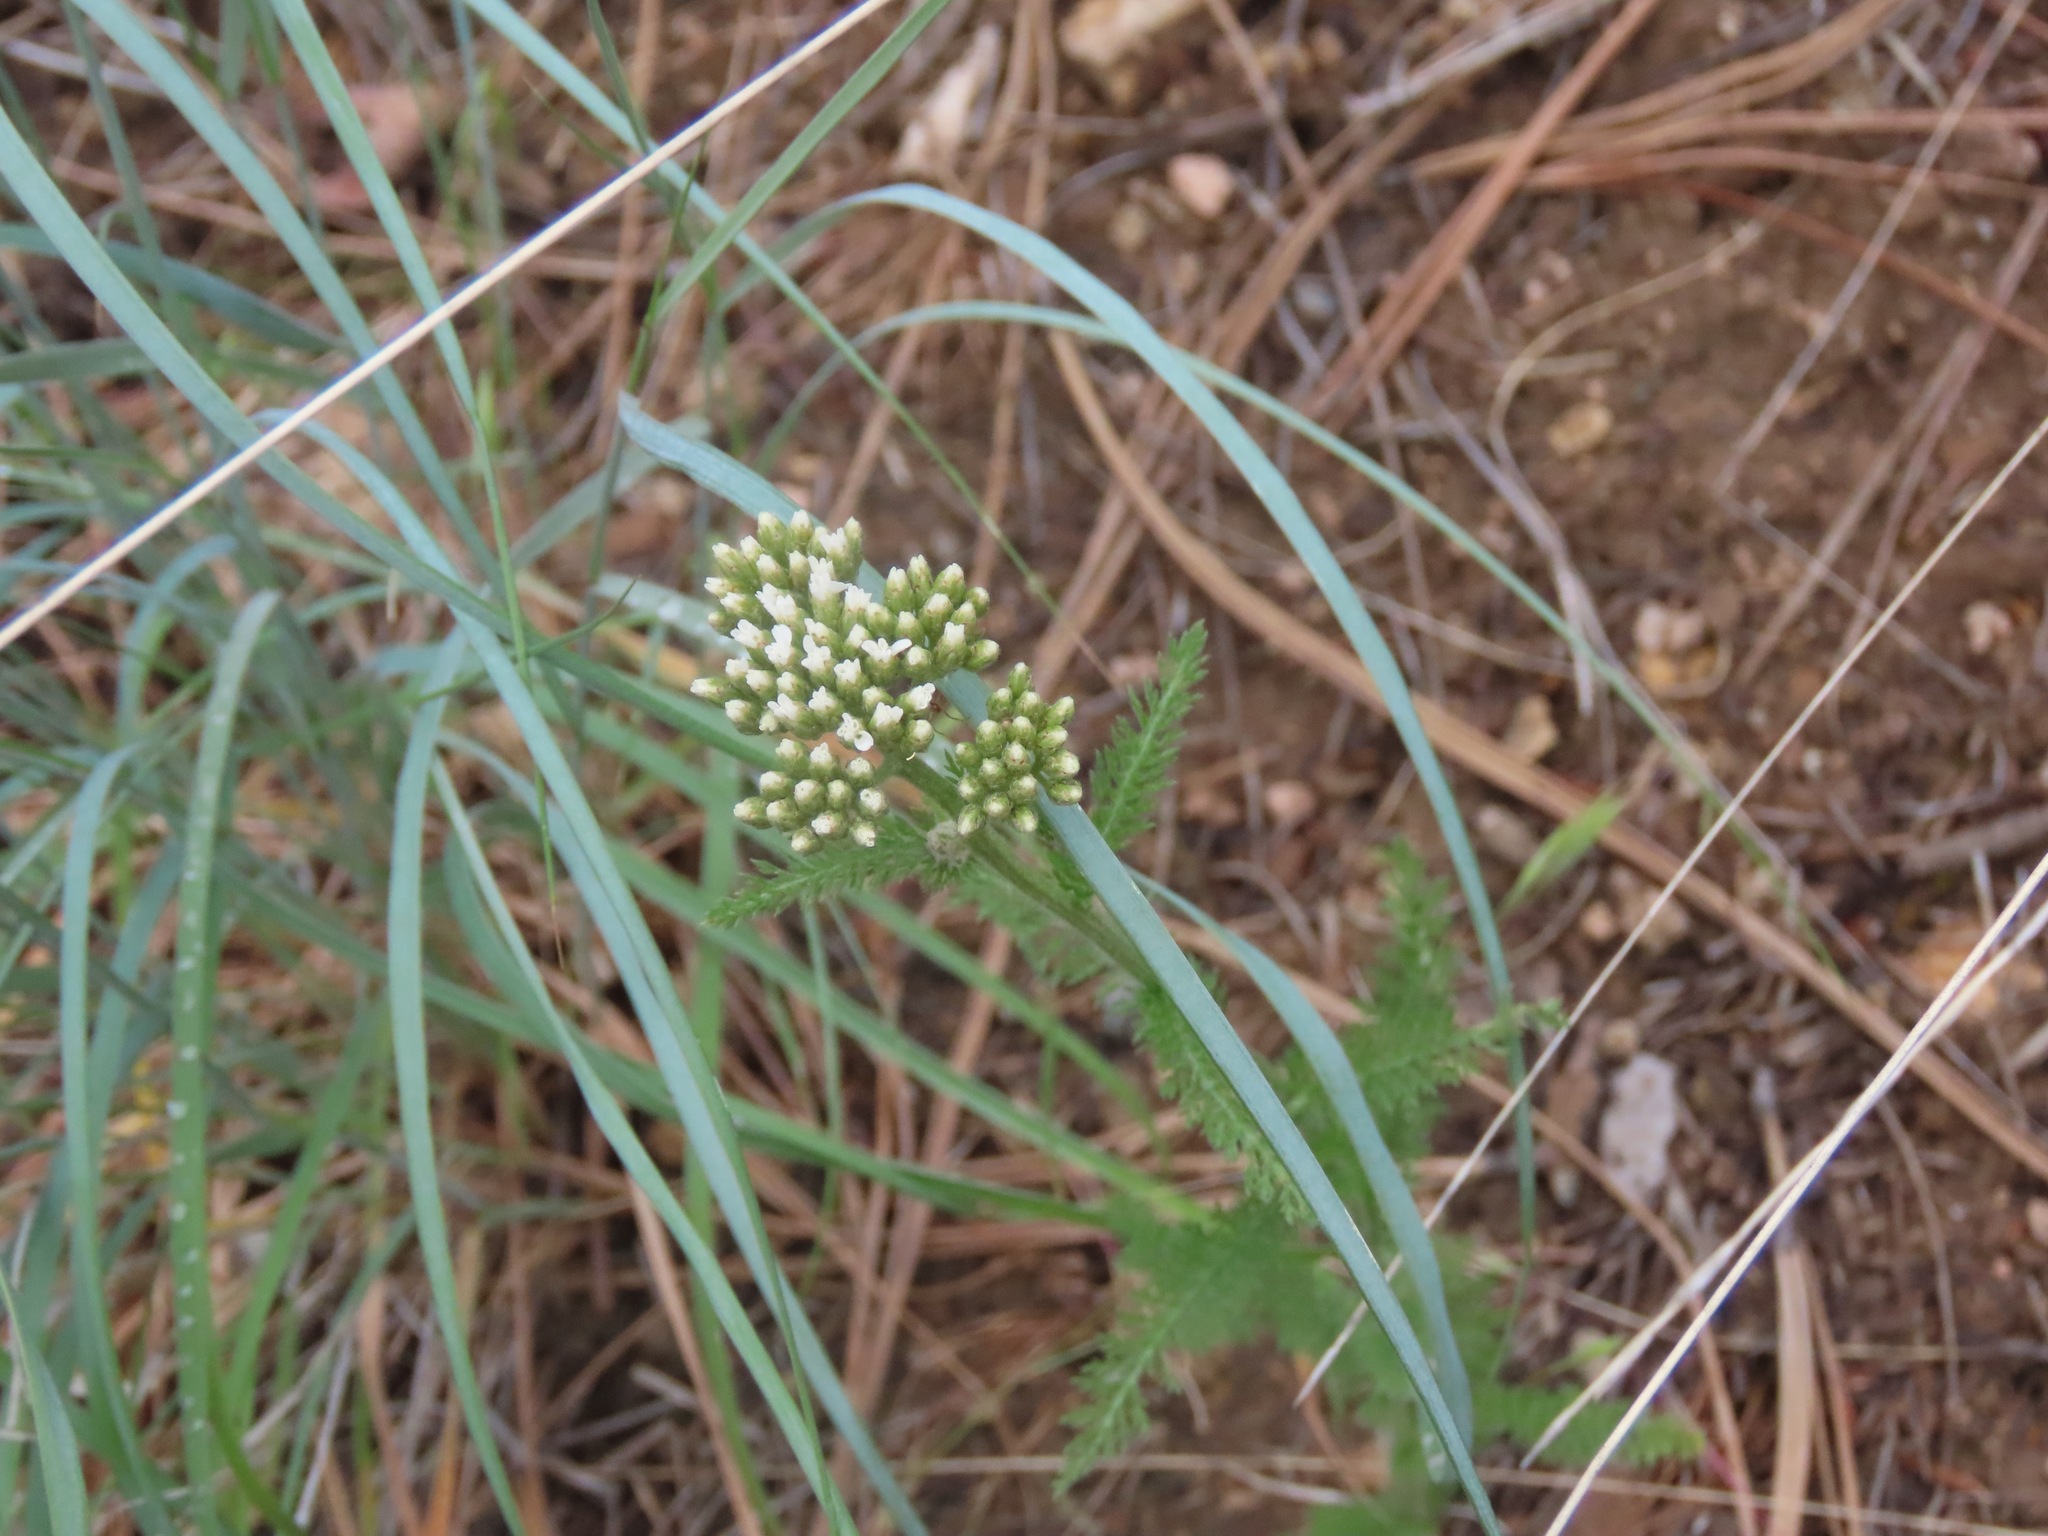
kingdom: Plantae
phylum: Tracheophyta
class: Magnoliopsida
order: Asterales
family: Asteraceae
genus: Achillea
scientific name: Achillea millefolium
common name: Yarrow
